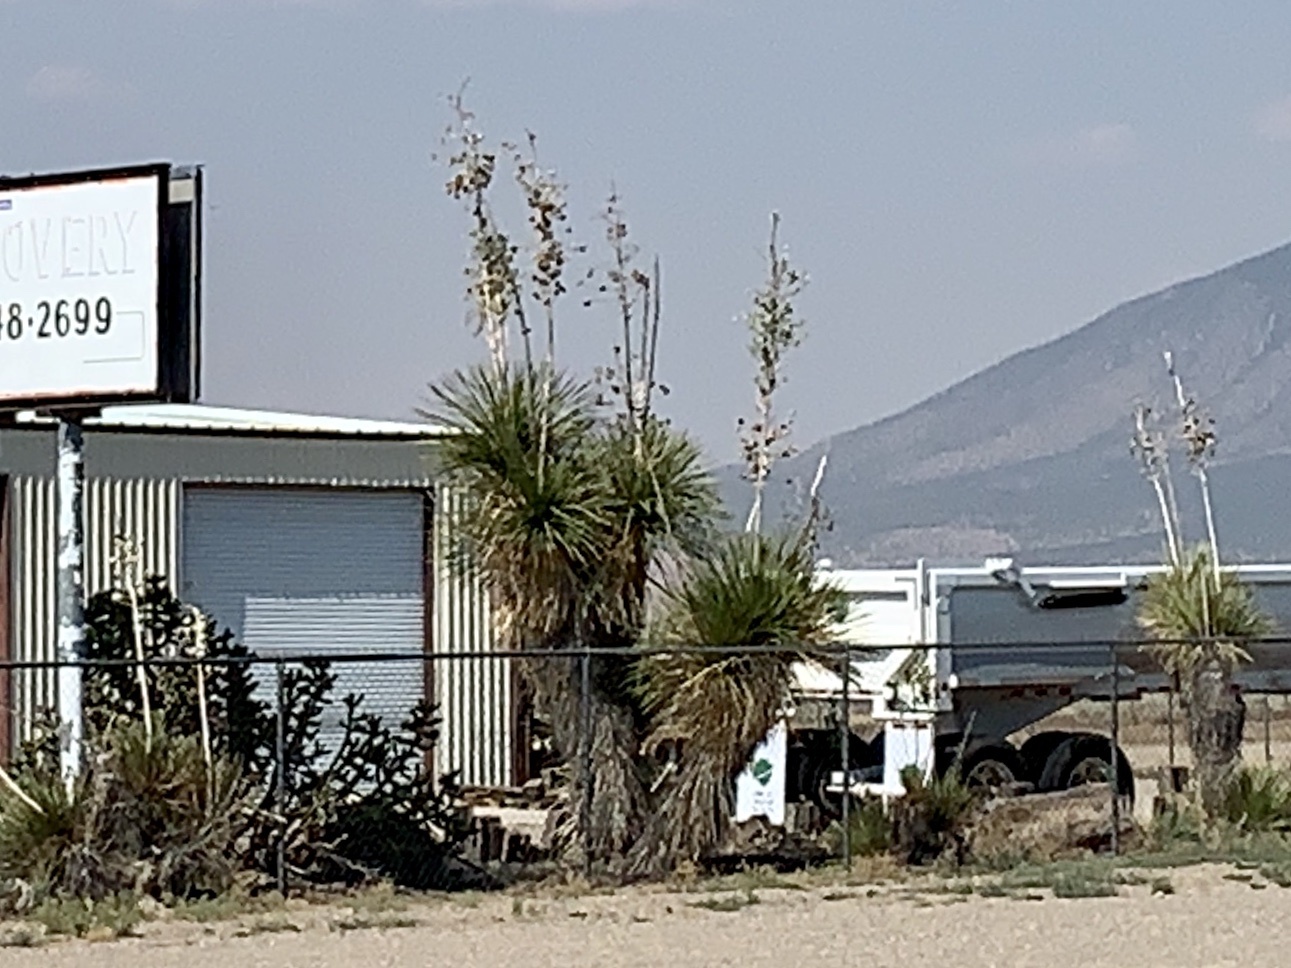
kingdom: Plantae
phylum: Tracheophyta
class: Liliopsida
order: Asparagales
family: Asparagaceae
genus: Yucca
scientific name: Yucca elata
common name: Palmella
